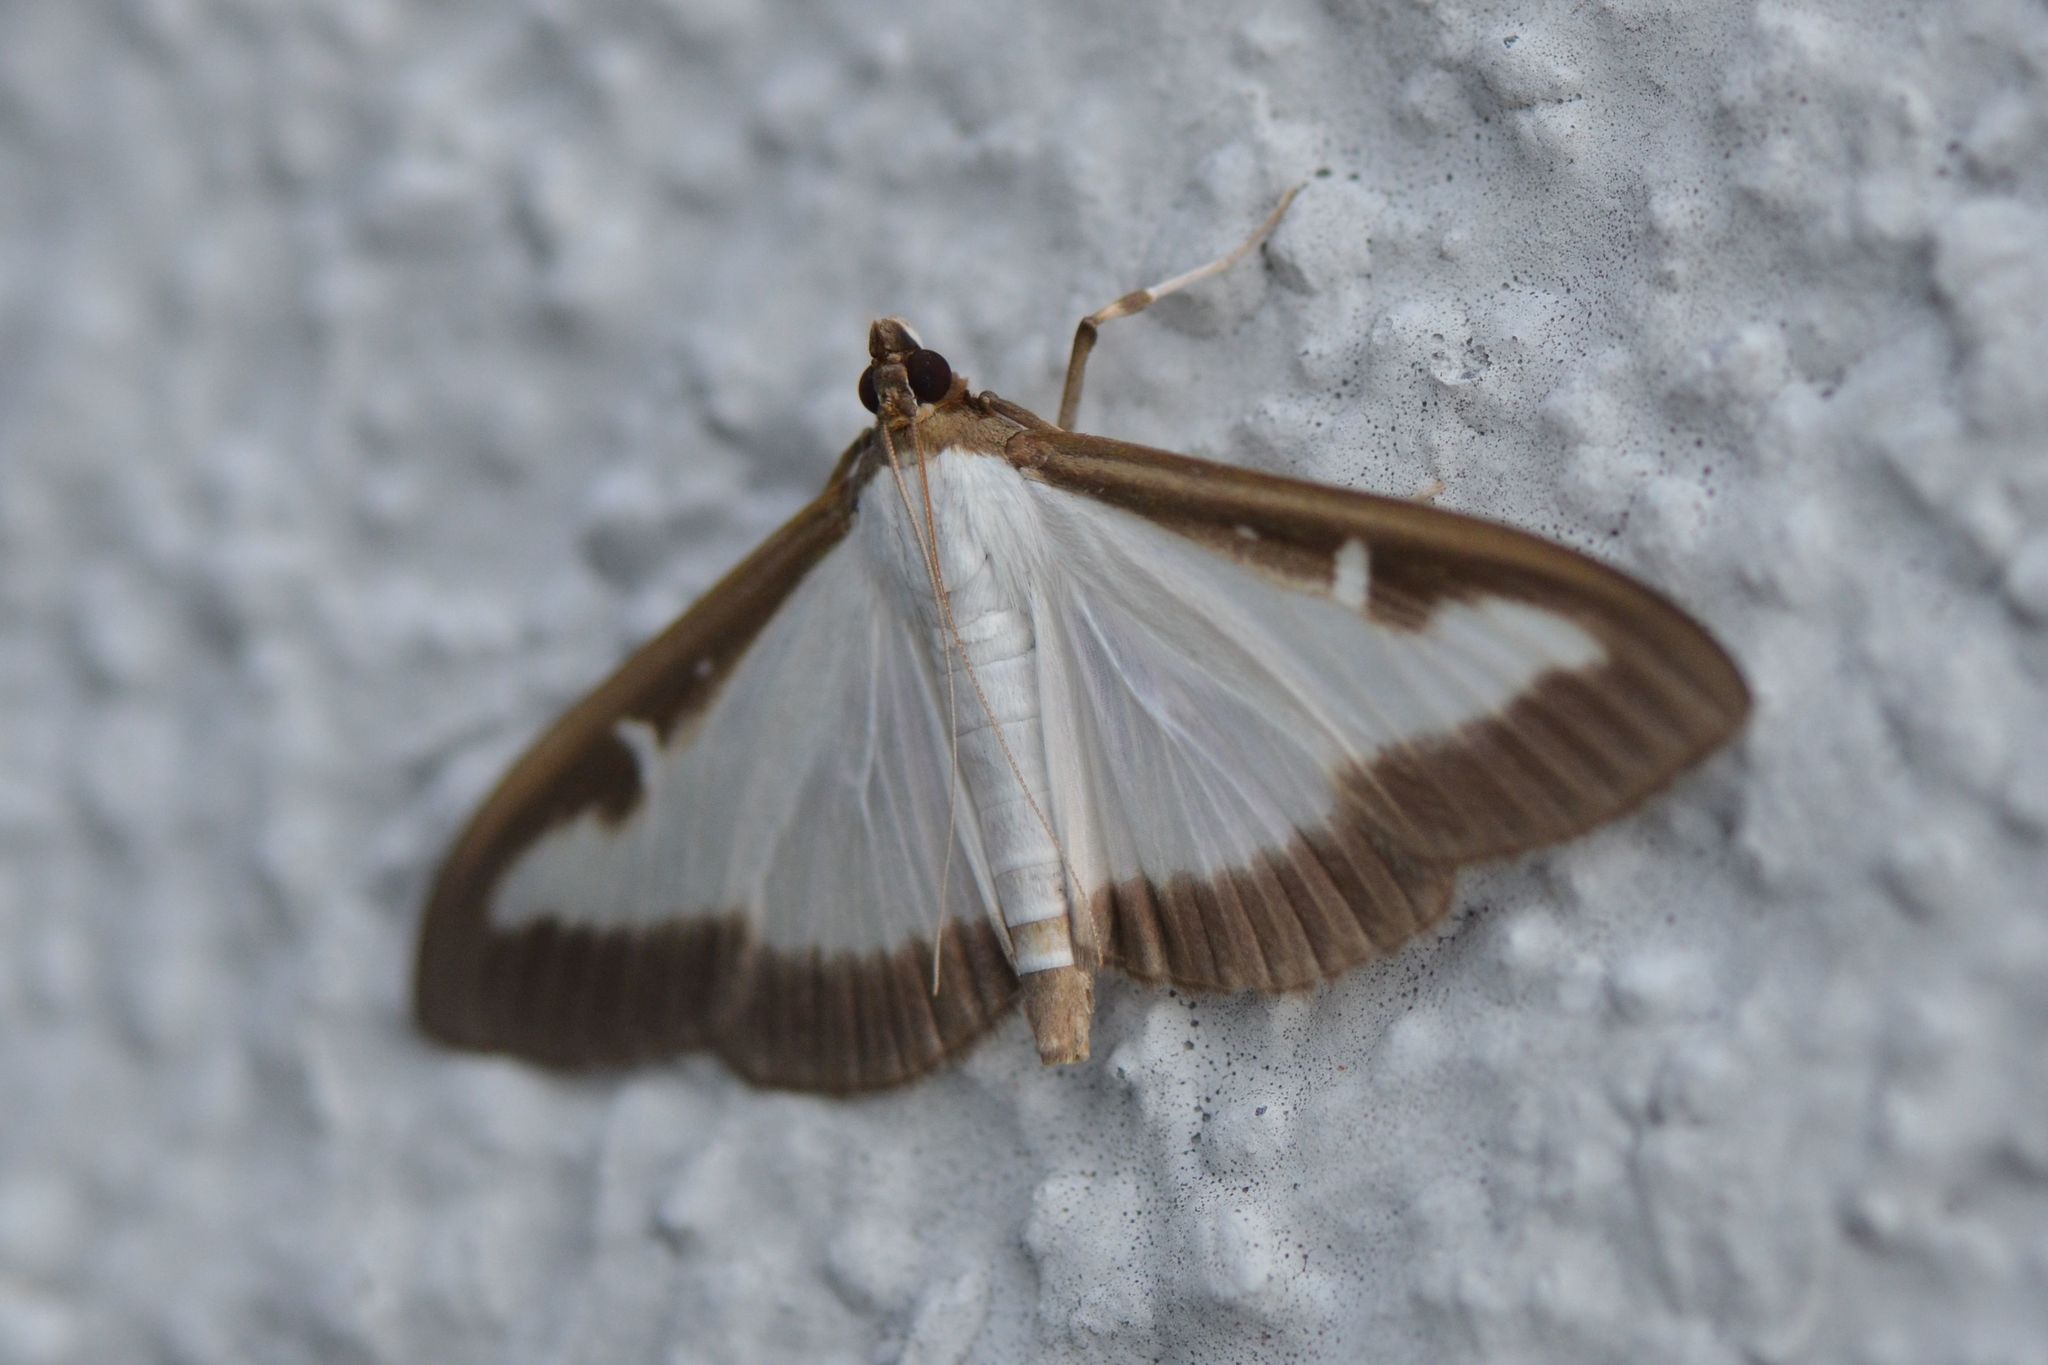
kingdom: Animalia
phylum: Arthropoda
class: Insecta
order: Lepidoptera
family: Crambidae
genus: Cydalima
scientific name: Cydalima perspectalis
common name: Box tree moth
